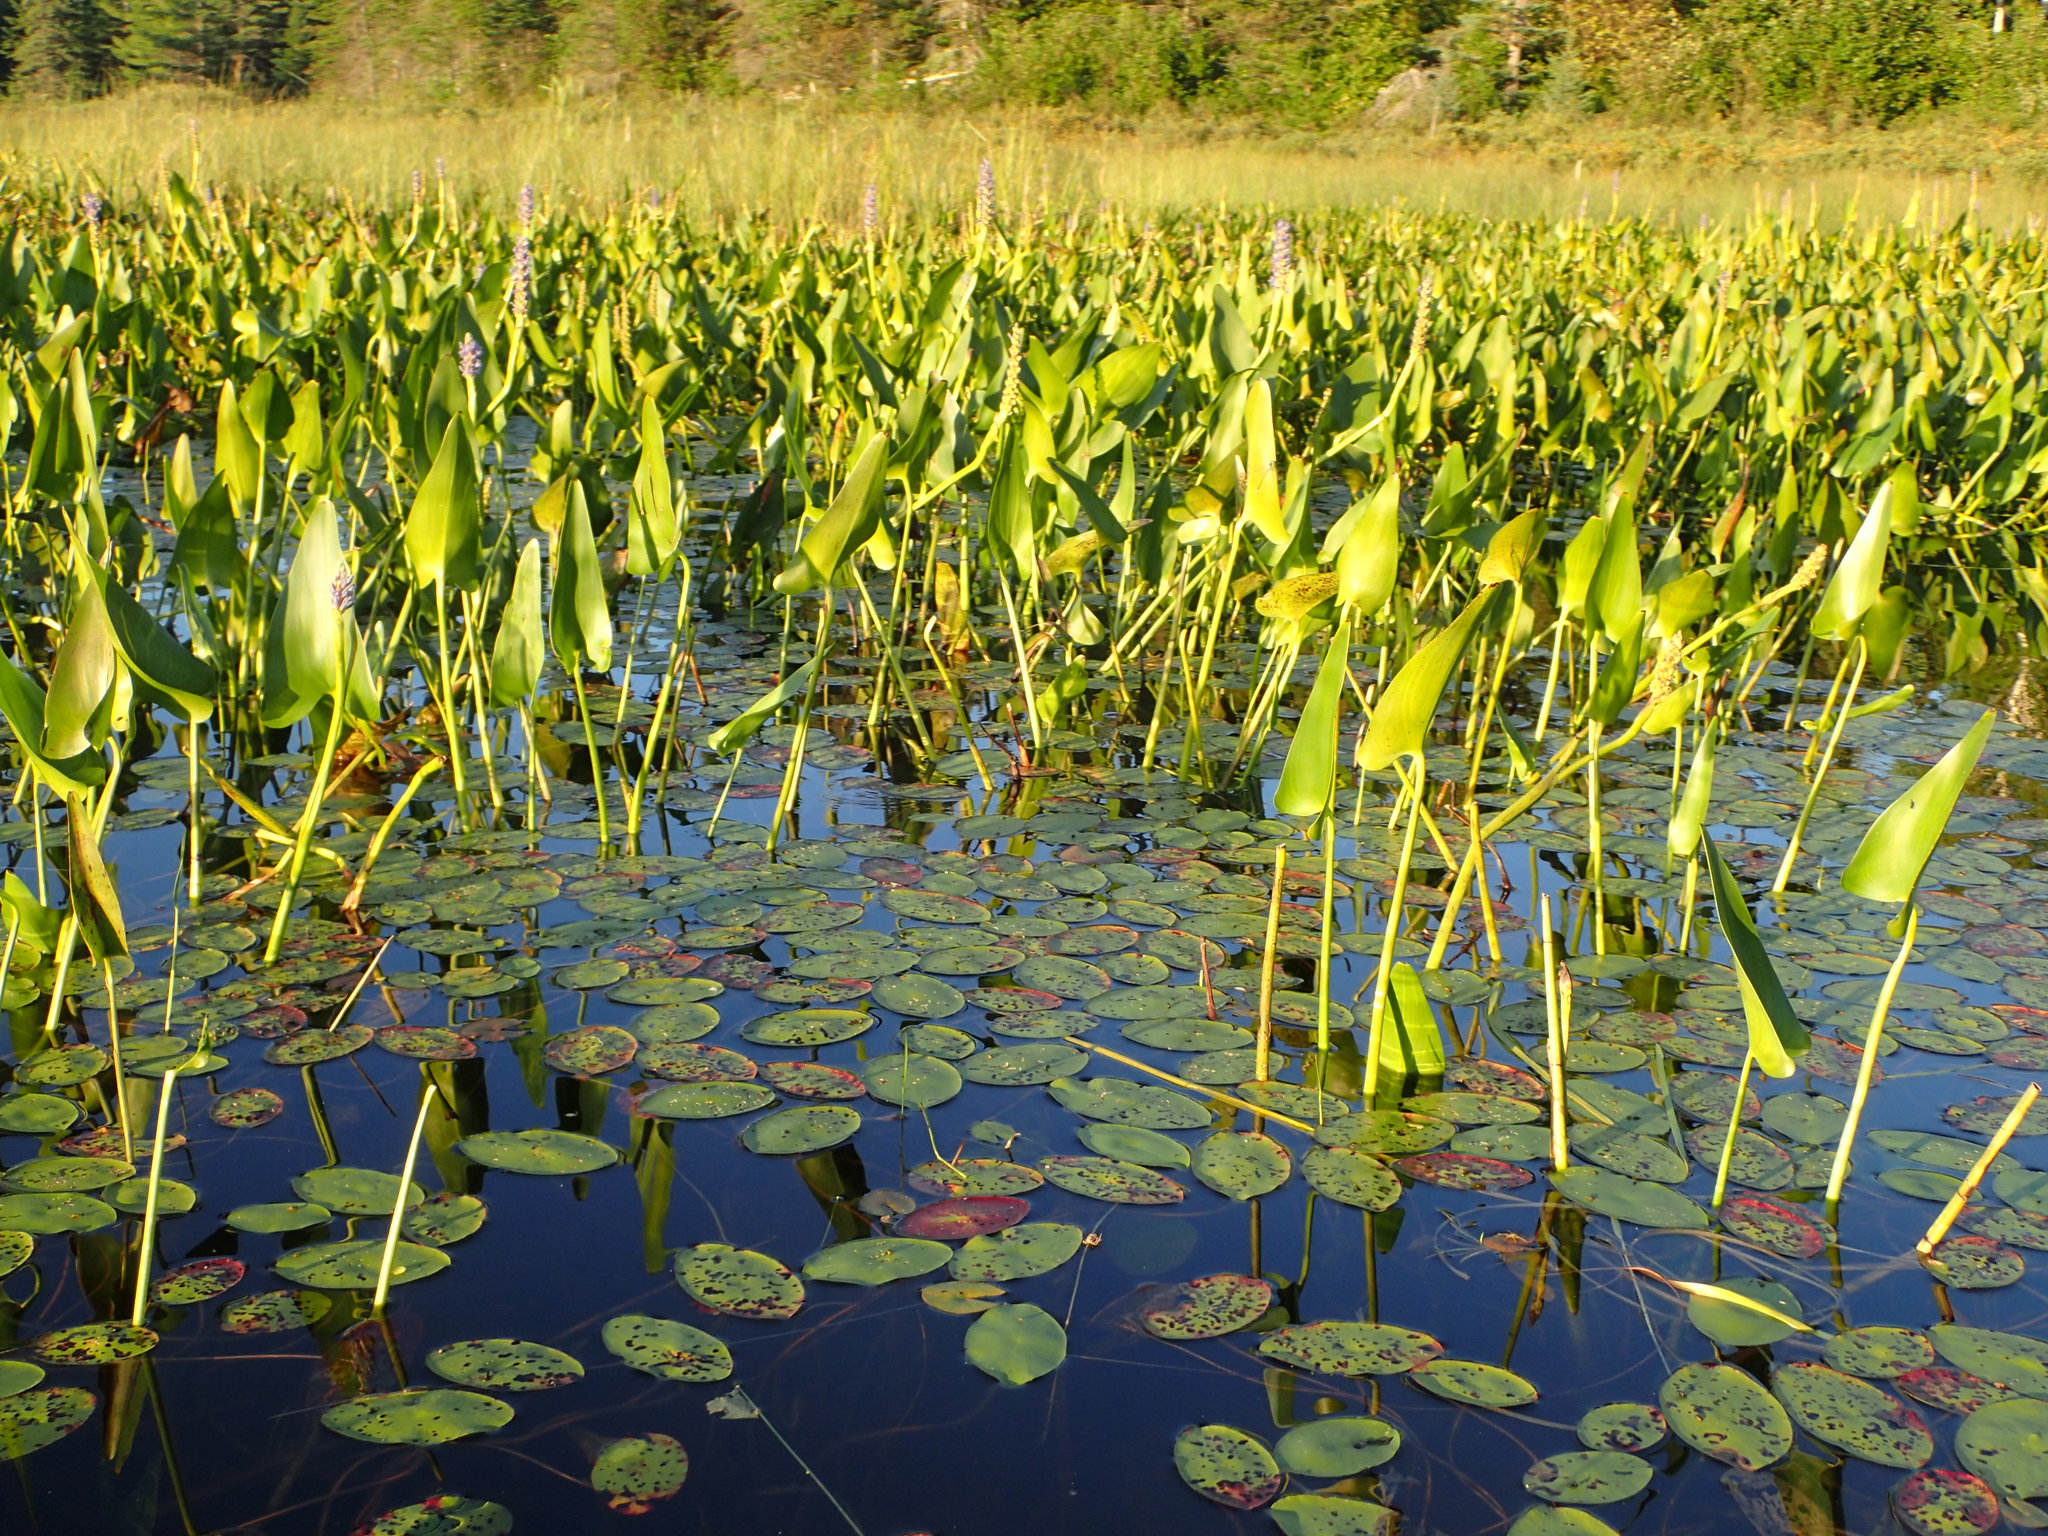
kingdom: Plantae
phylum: Tracheophyta
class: Liliopsida
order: Commelinales
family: Pontederiaceae
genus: Pontederia
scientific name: Pontederia cordata
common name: Pickerelweed
